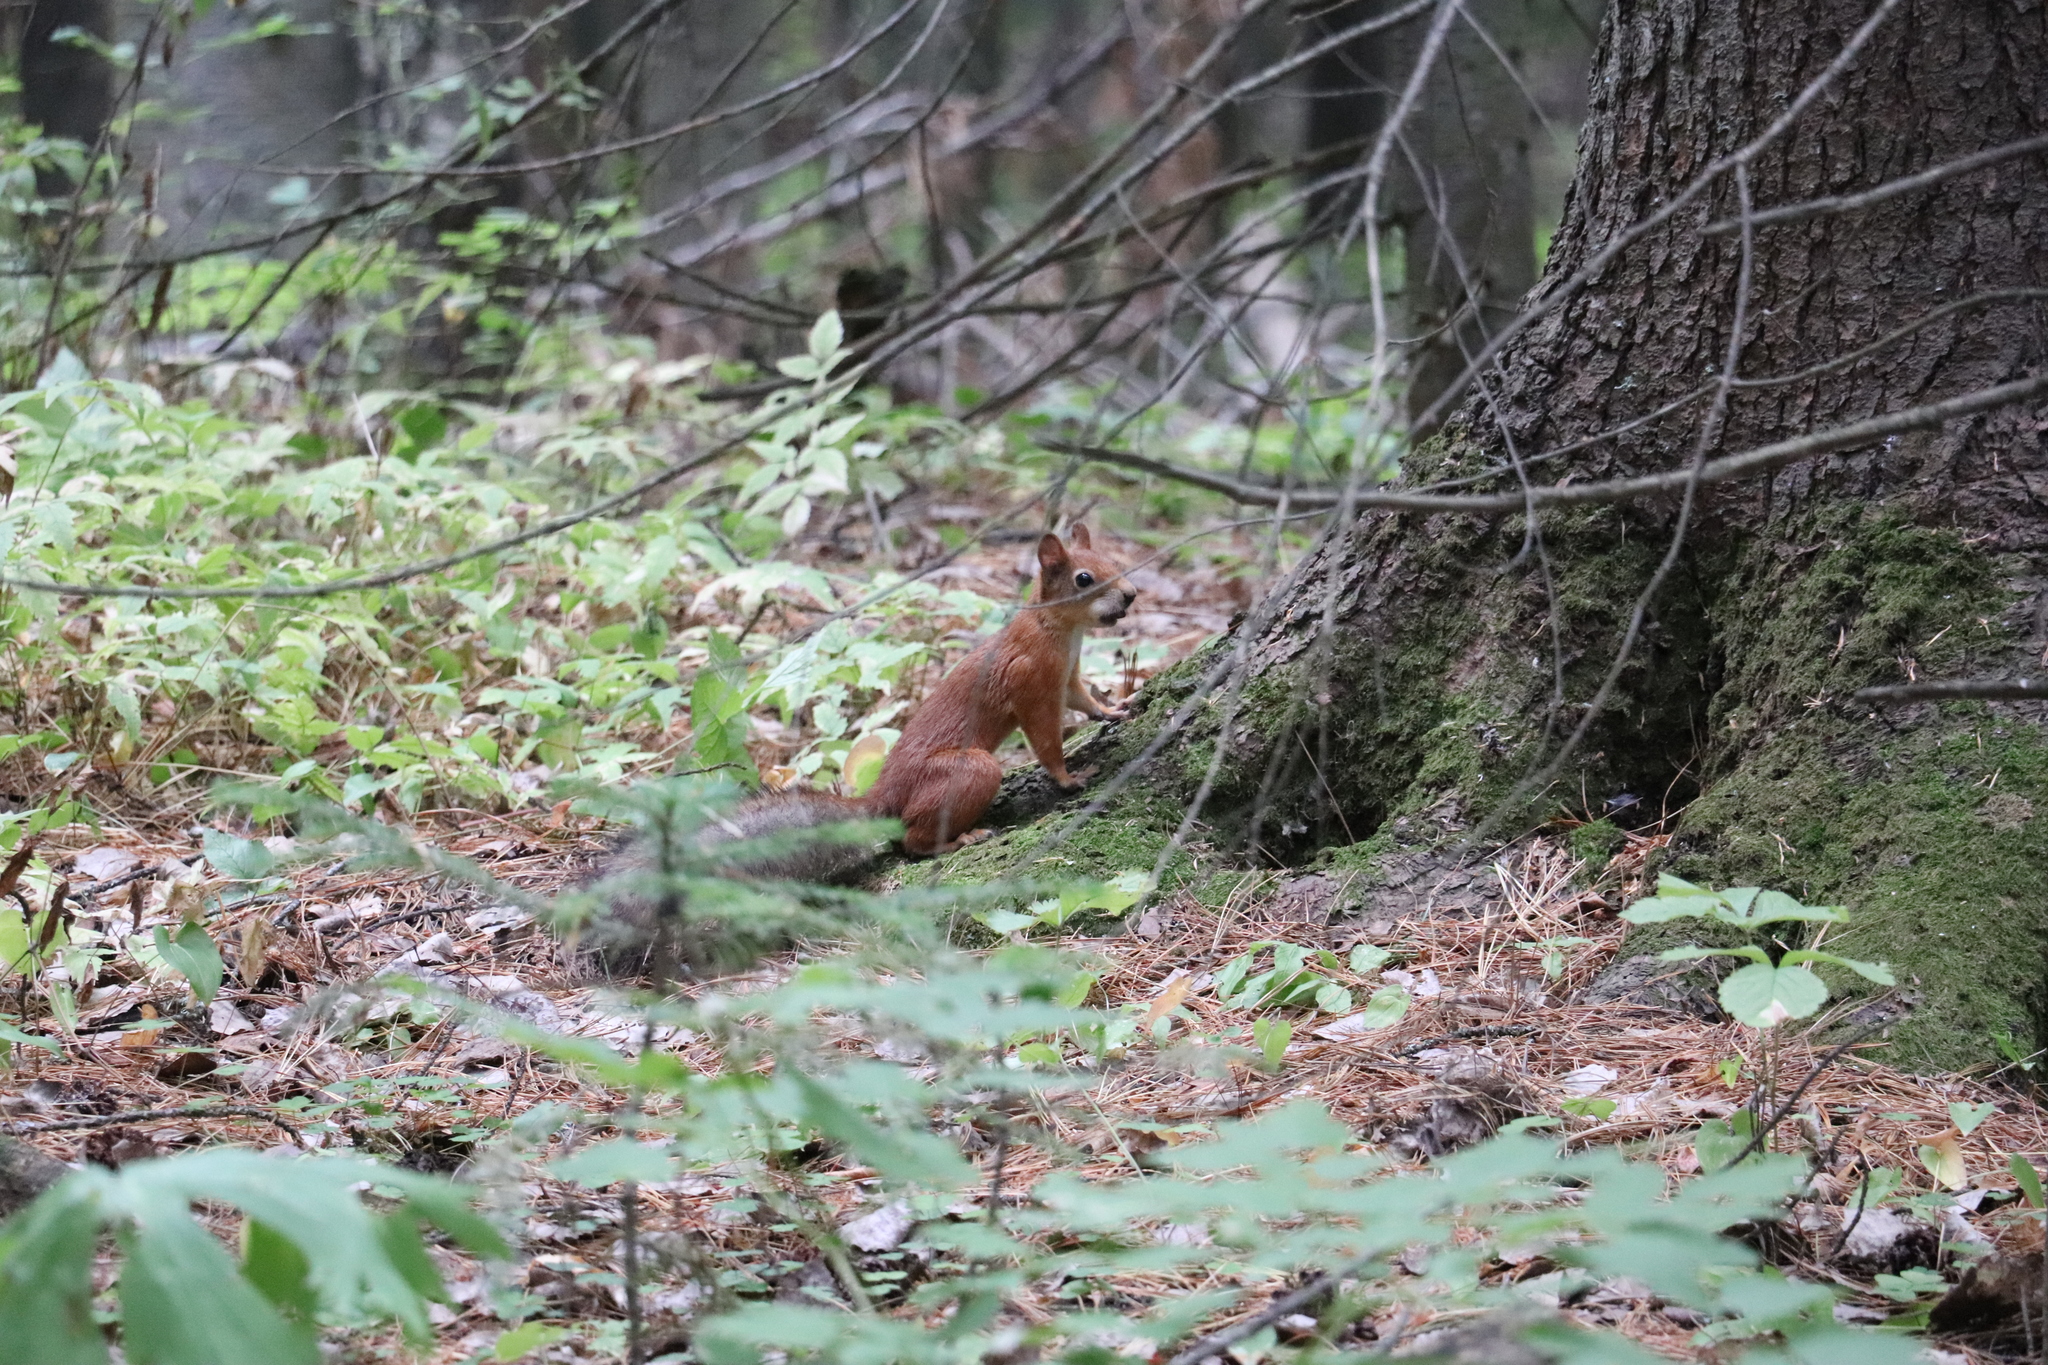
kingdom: Animalia
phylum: Chordata
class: Mammalia
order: Rodentia
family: Sciuridae
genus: Sciurus
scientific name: Sciurus vulgaris
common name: Eurasian red squirrel
